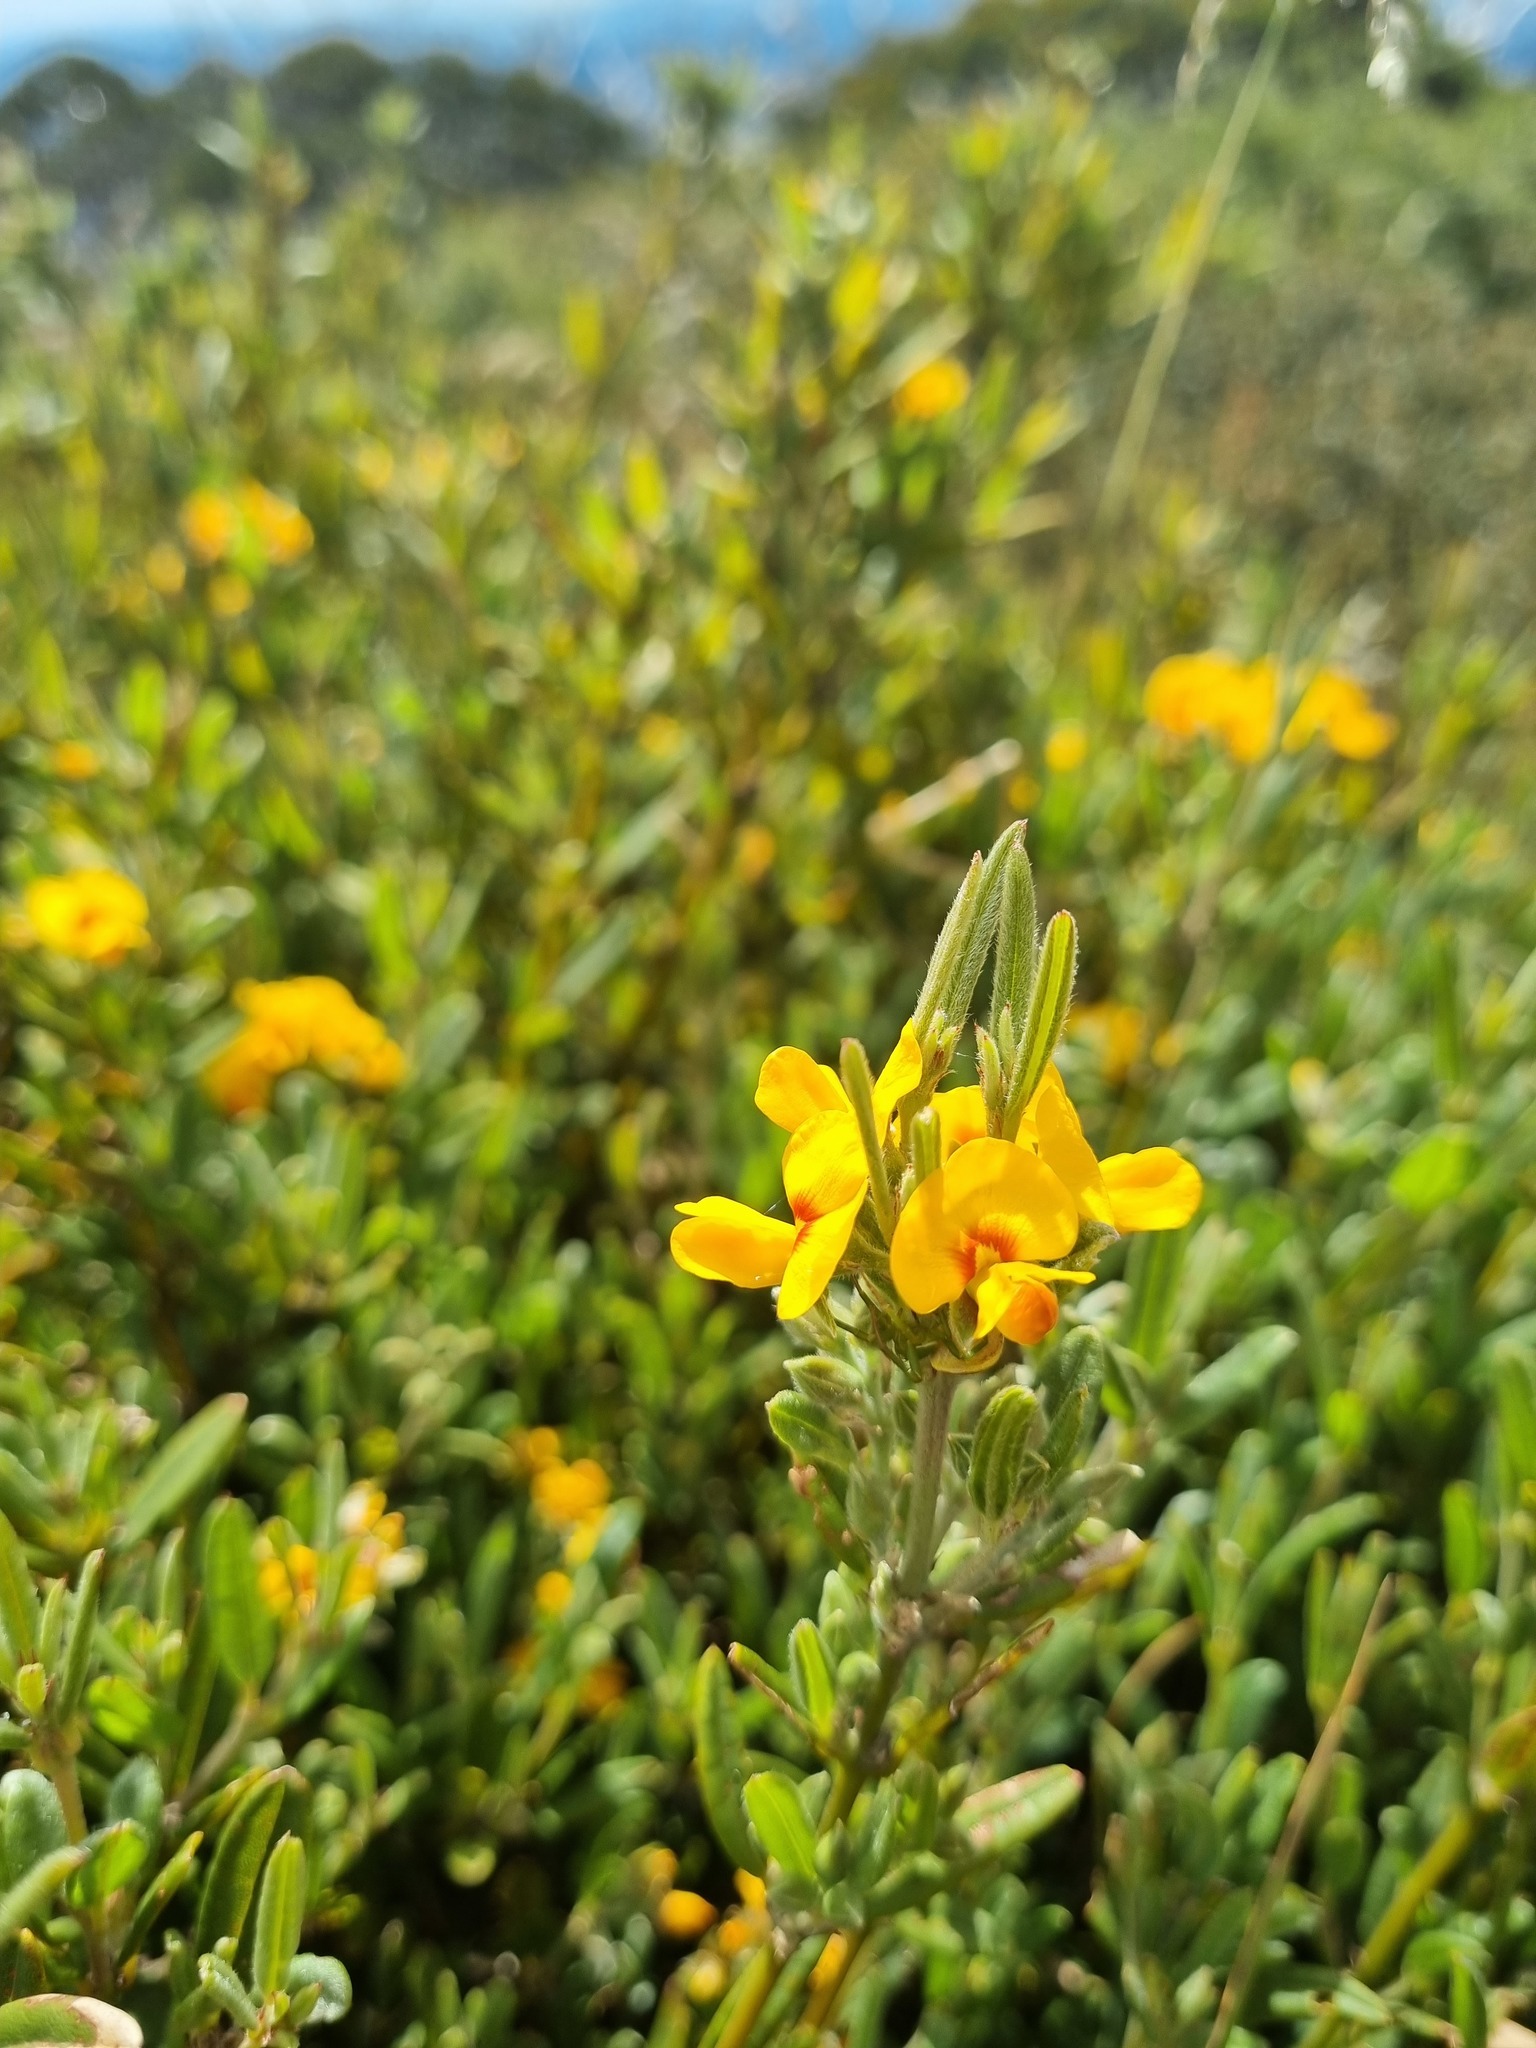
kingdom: Plantae
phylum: Tracheophyta
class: Magnoliopsida
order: Fabales
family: Fabaceae
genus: Podolobium
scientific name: Podolobium alpestre
